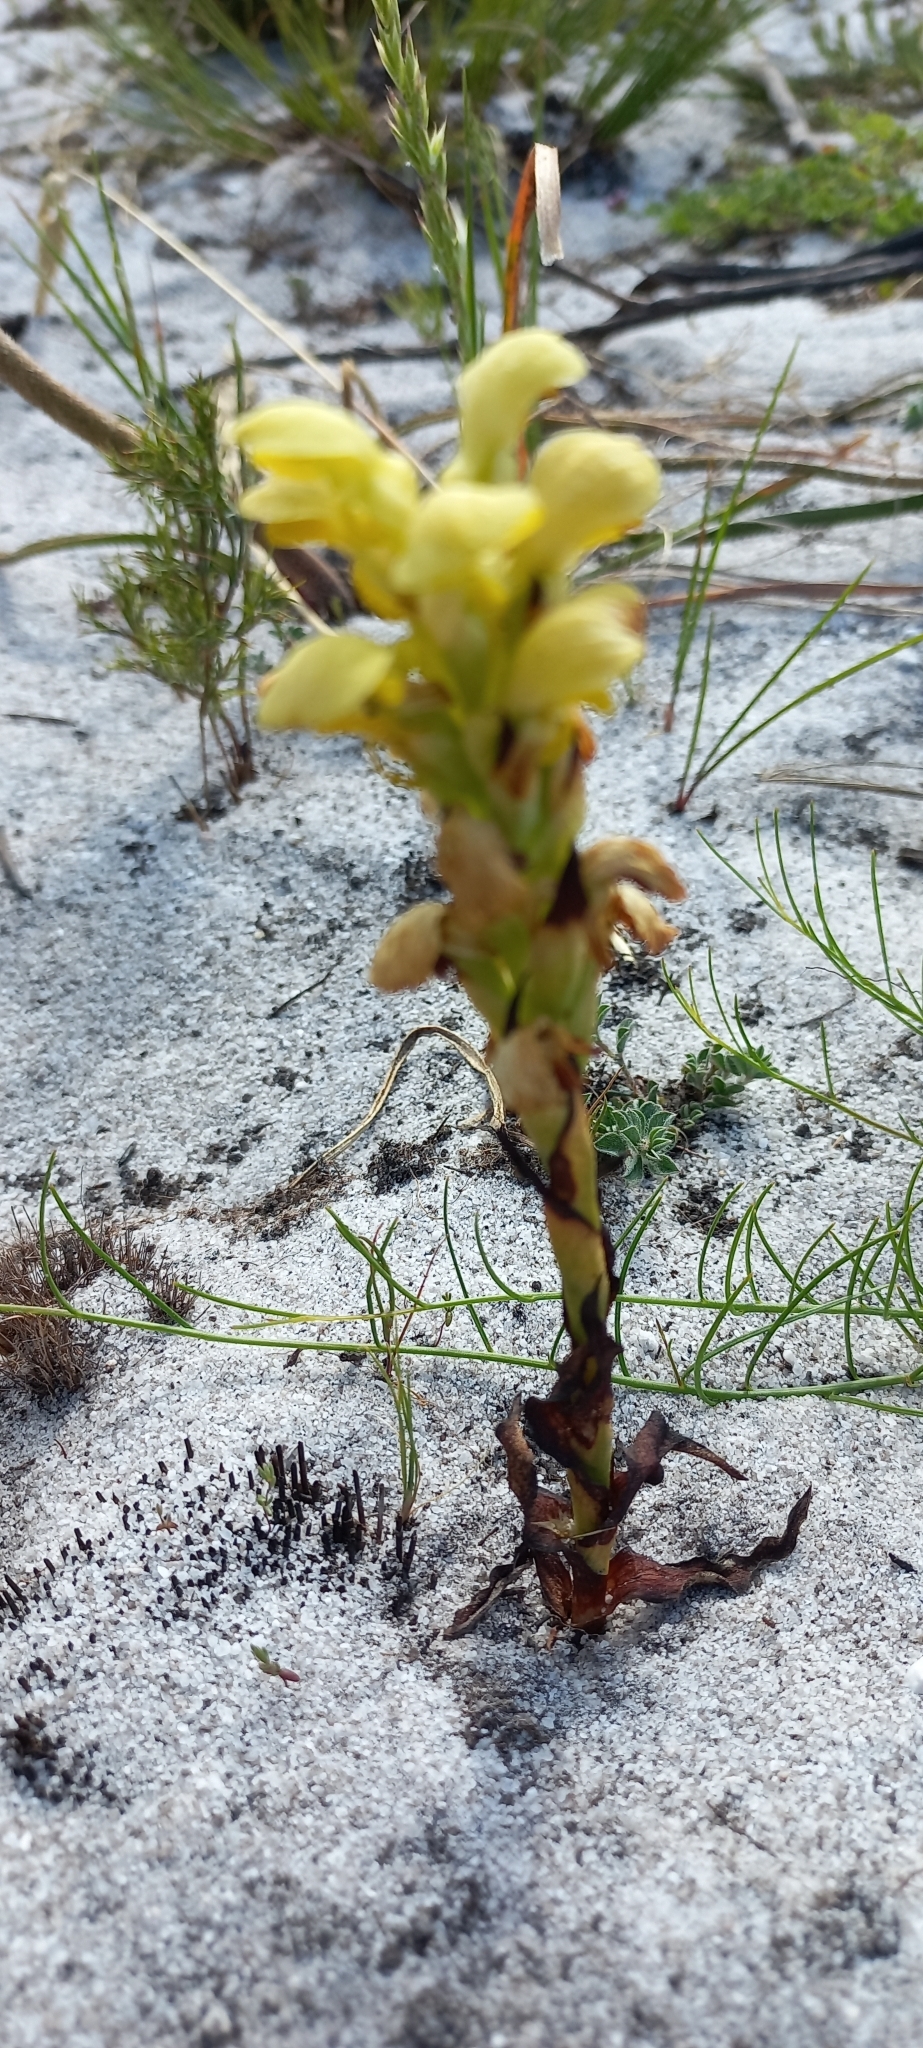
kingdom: Plantae
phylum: Tracheophyta
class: Liliopsida
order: Asparagales
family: Orchidaceae
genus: Disa
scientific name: Disa sabulosa
